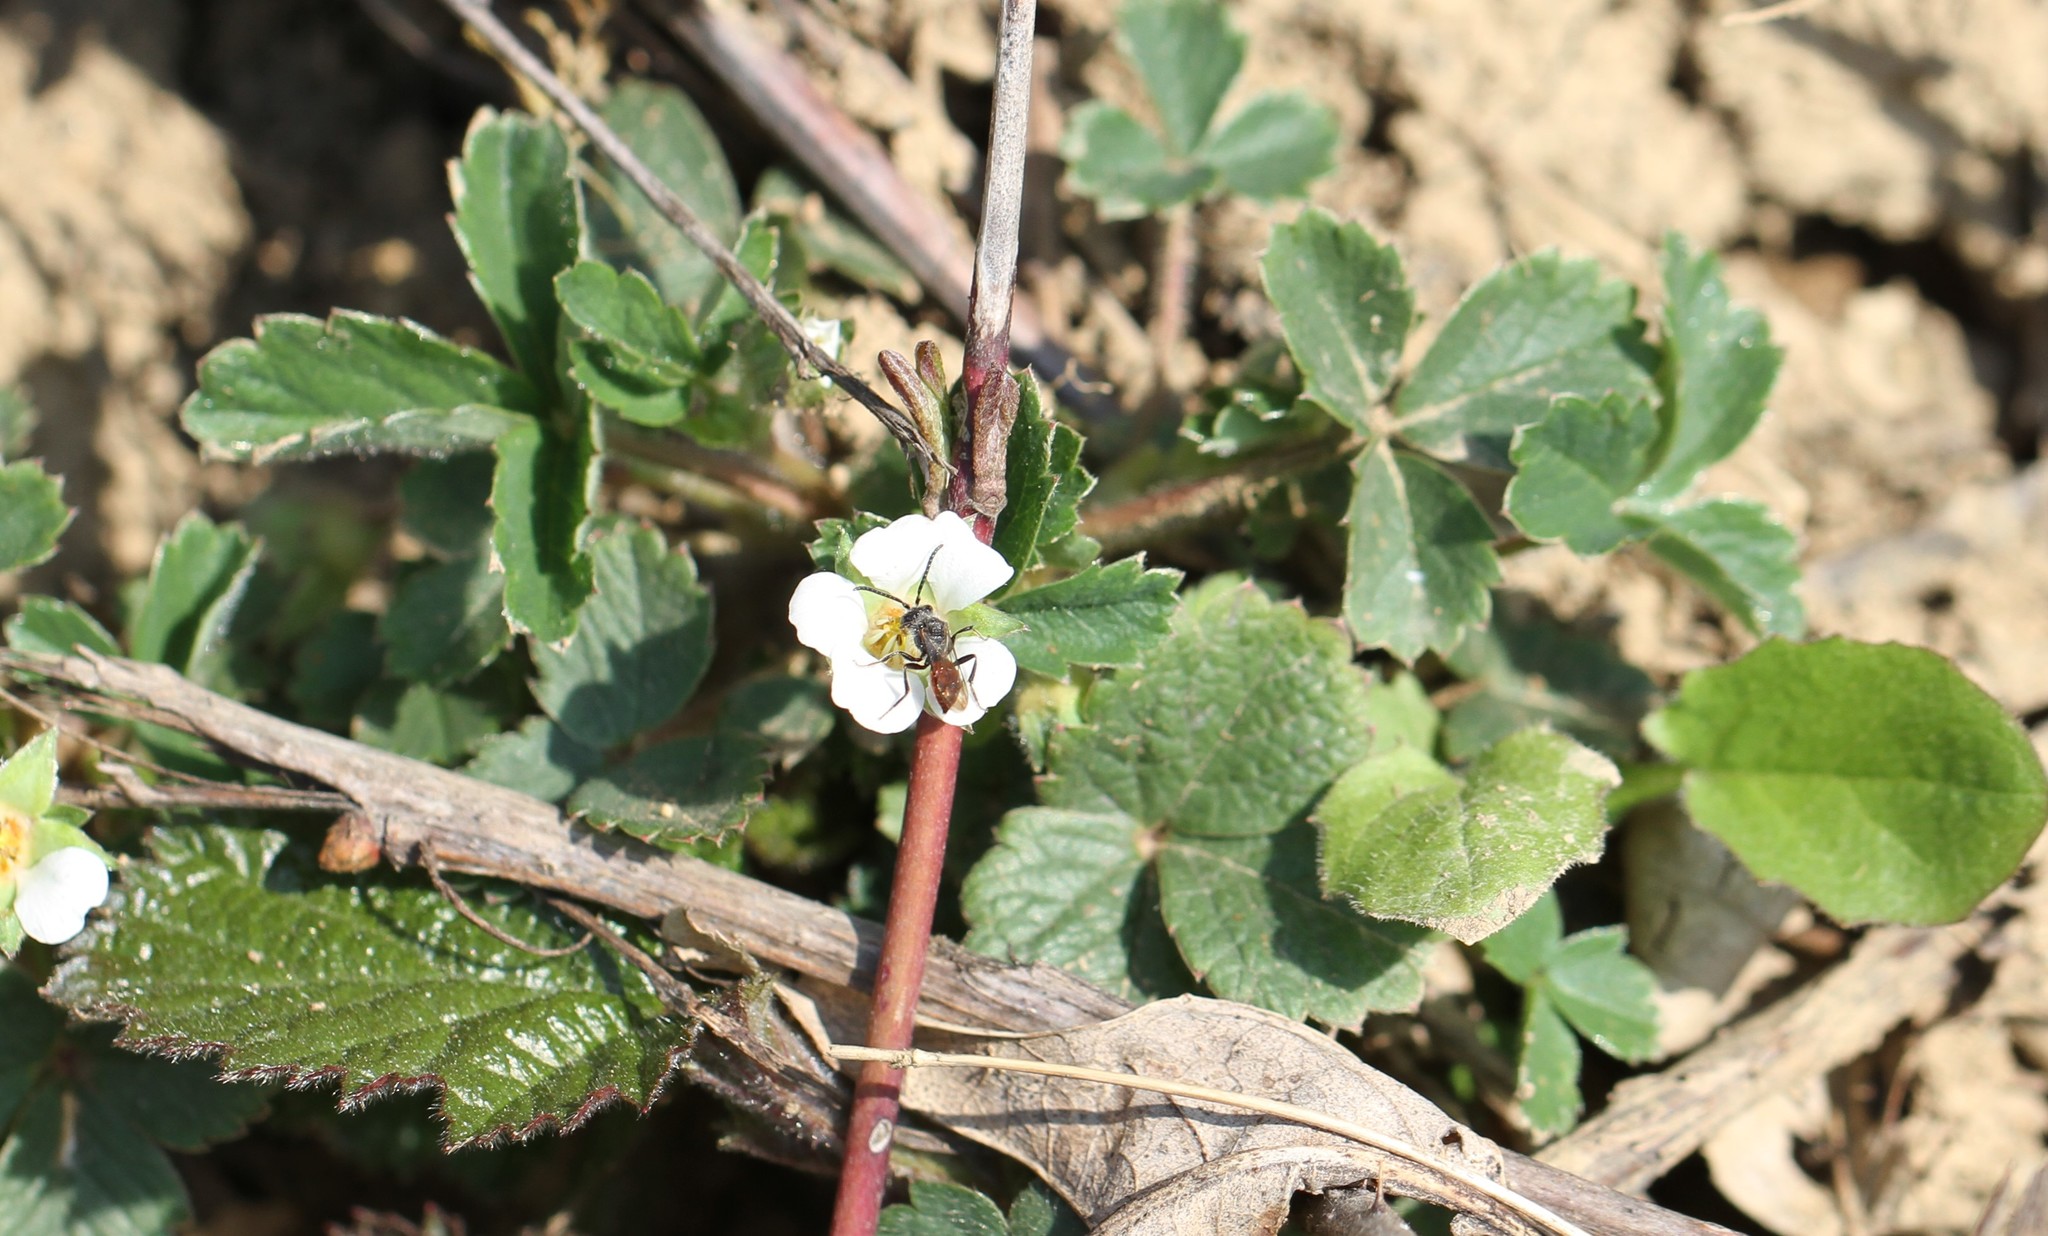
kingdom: Animalia
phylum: Arthropoda
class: Insecta
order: Hymenoptera
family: Apidae
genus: Nomada
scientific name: Nomada
